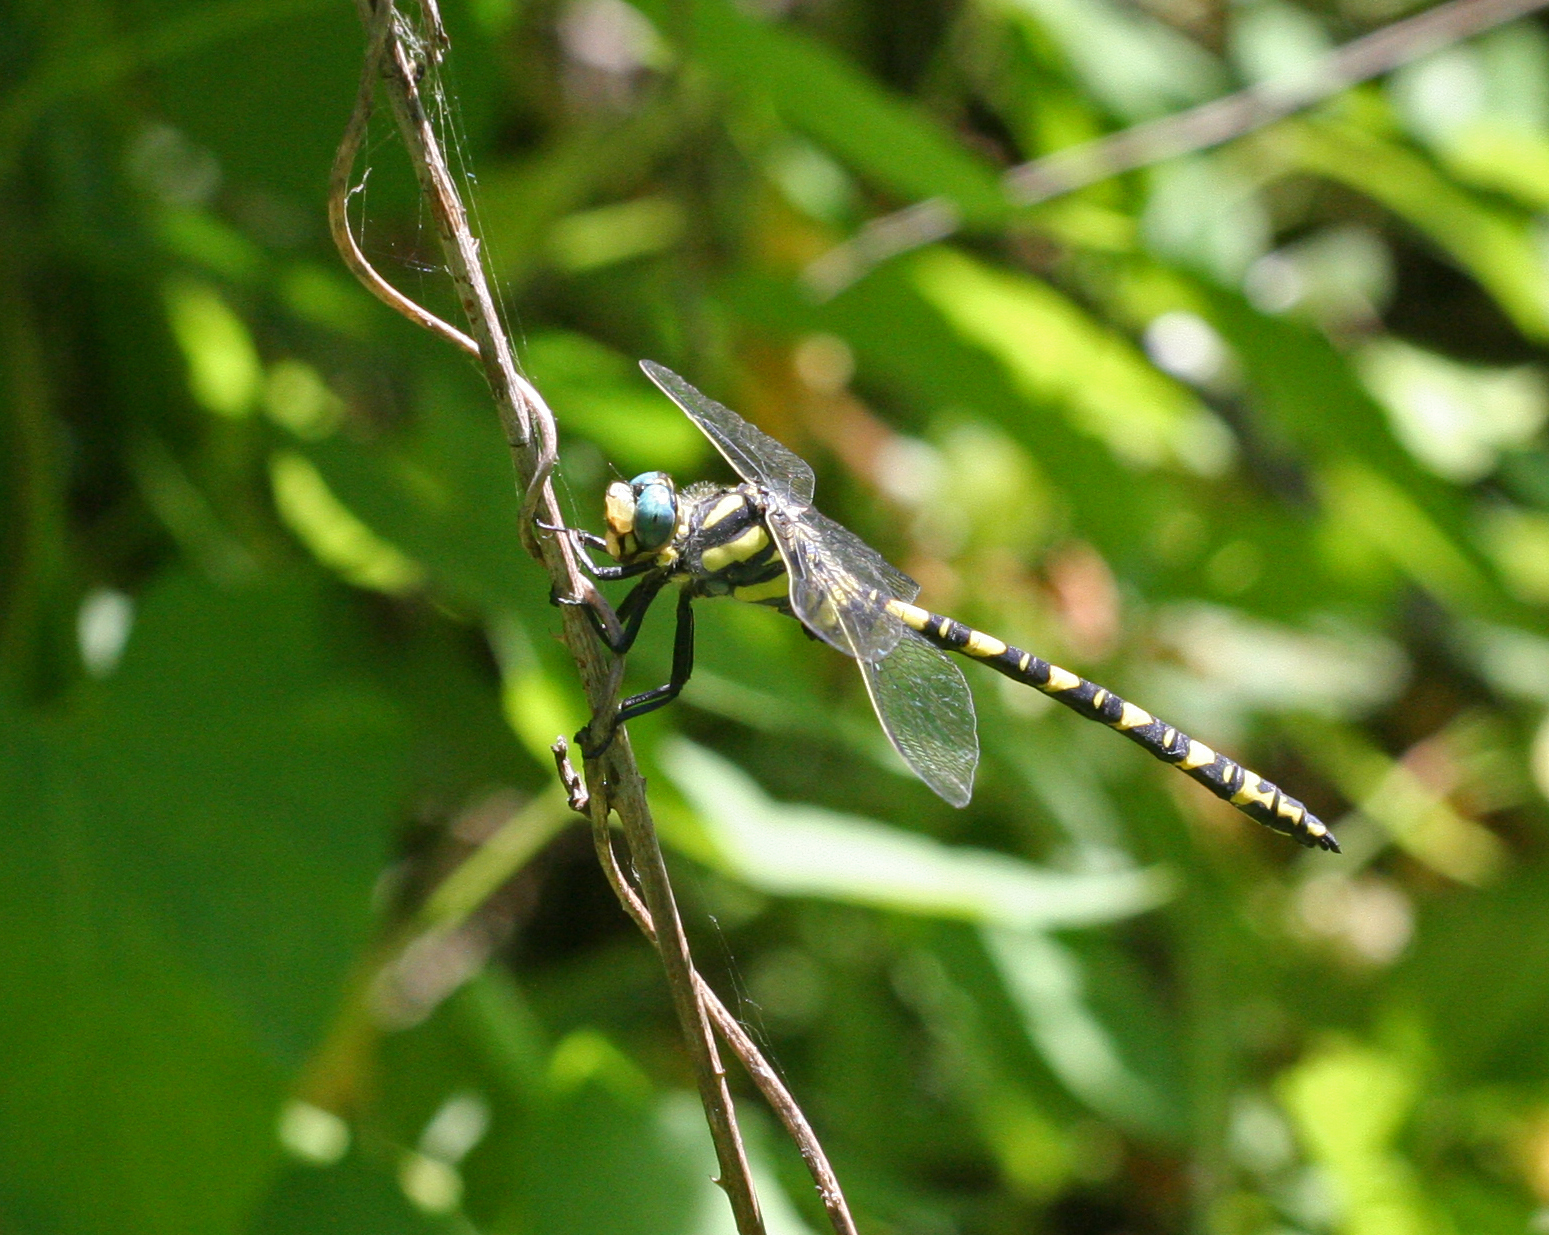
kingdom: Animalia
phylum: Arthropoda
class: Insecta
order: Odonata
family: Cordulegastridae
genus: Cordulegaster
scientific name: Cordulegaster charpentieri
